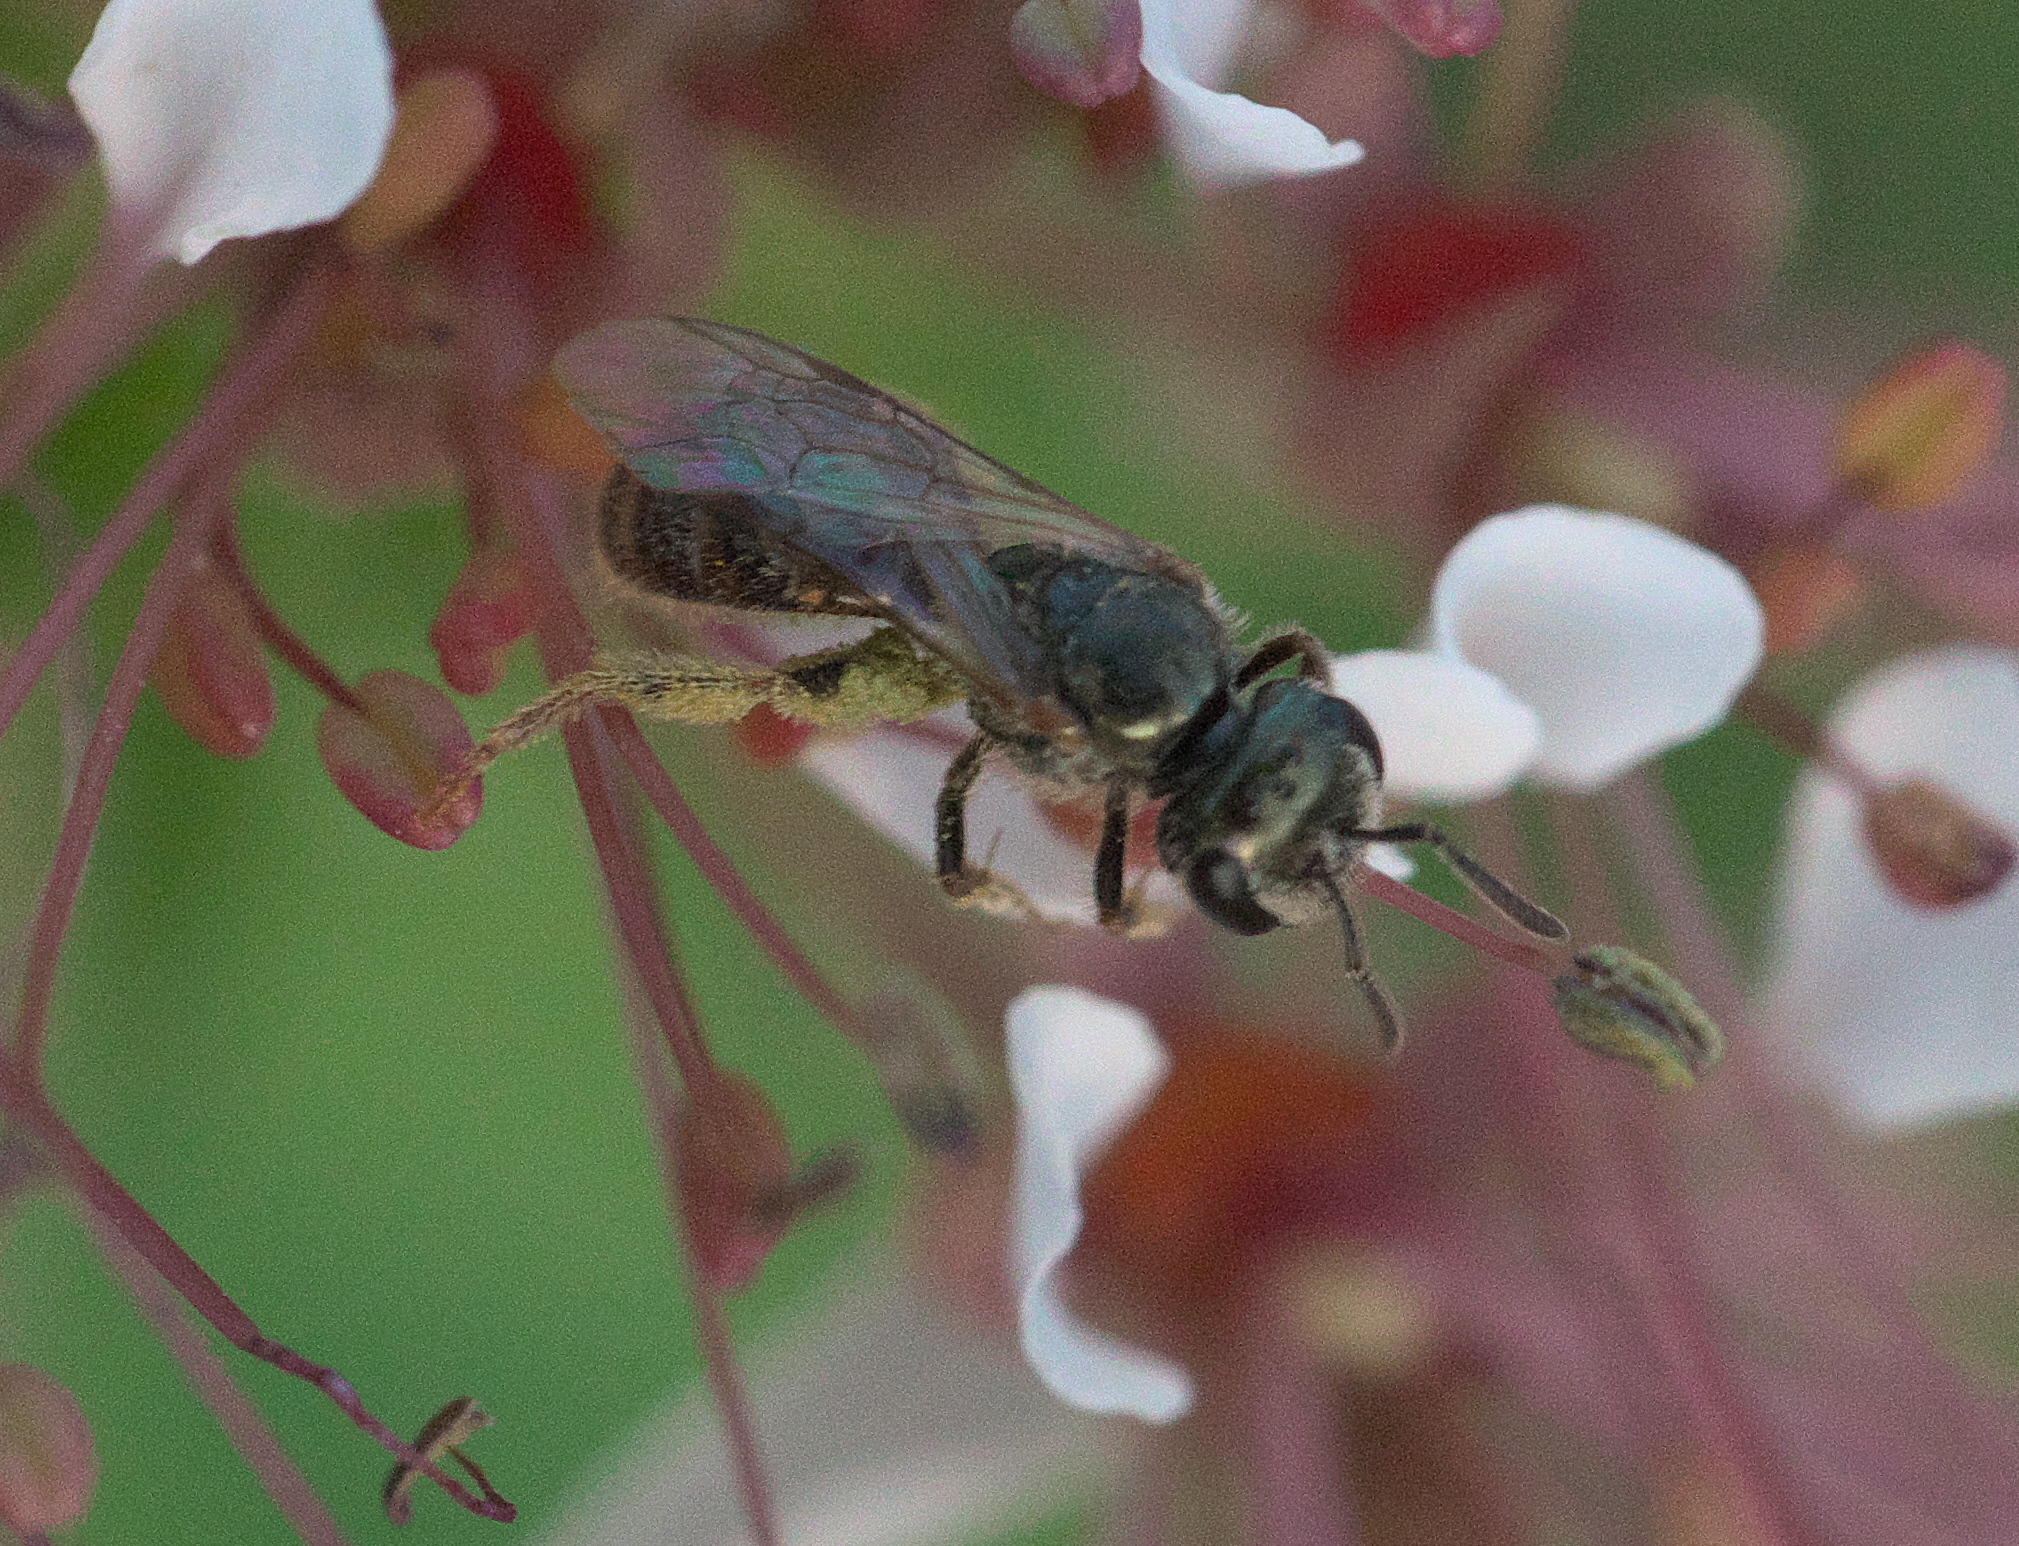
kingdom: Animalia
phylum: Arthropoda
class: Insecta
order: Hymenoptera
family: Halictidae
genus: Lasioglossum
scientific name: Lasioglossum zephyrum
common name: Zephyr sweat bee
